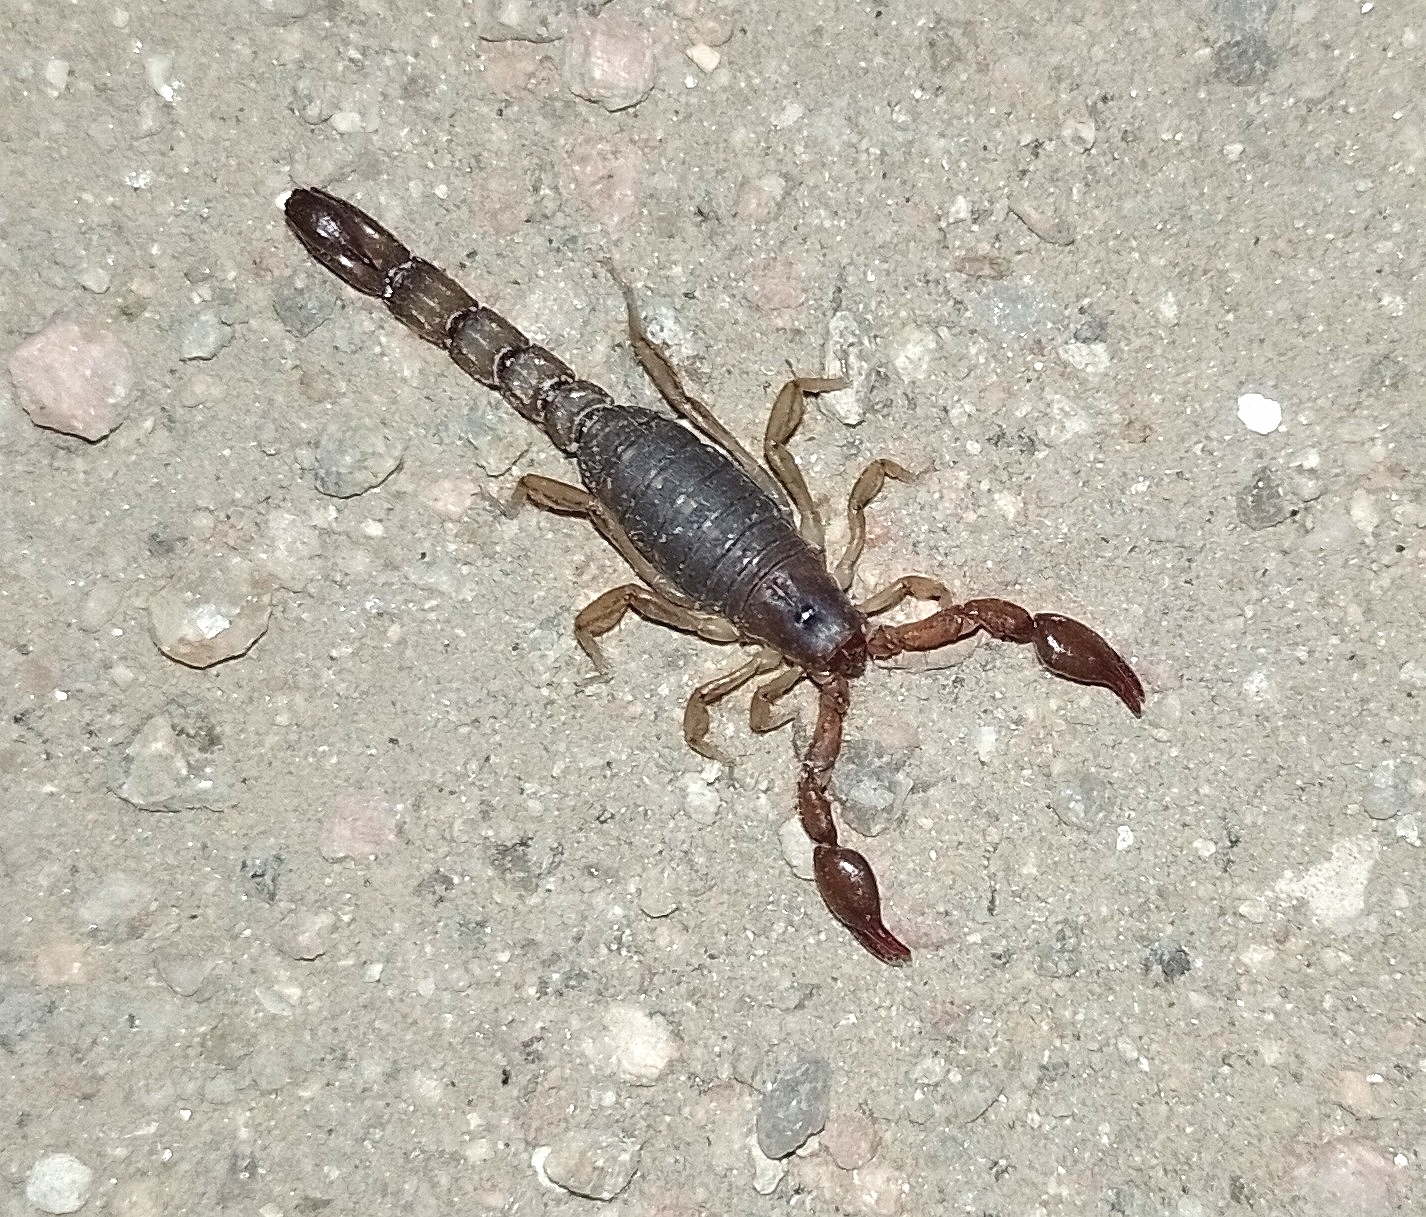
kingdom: Animalia
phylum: Arthropoda
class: Arachnida
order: Scorpiones
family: Bothriuridae
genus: Bothriurus
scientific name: Bothriurus cordubensis
